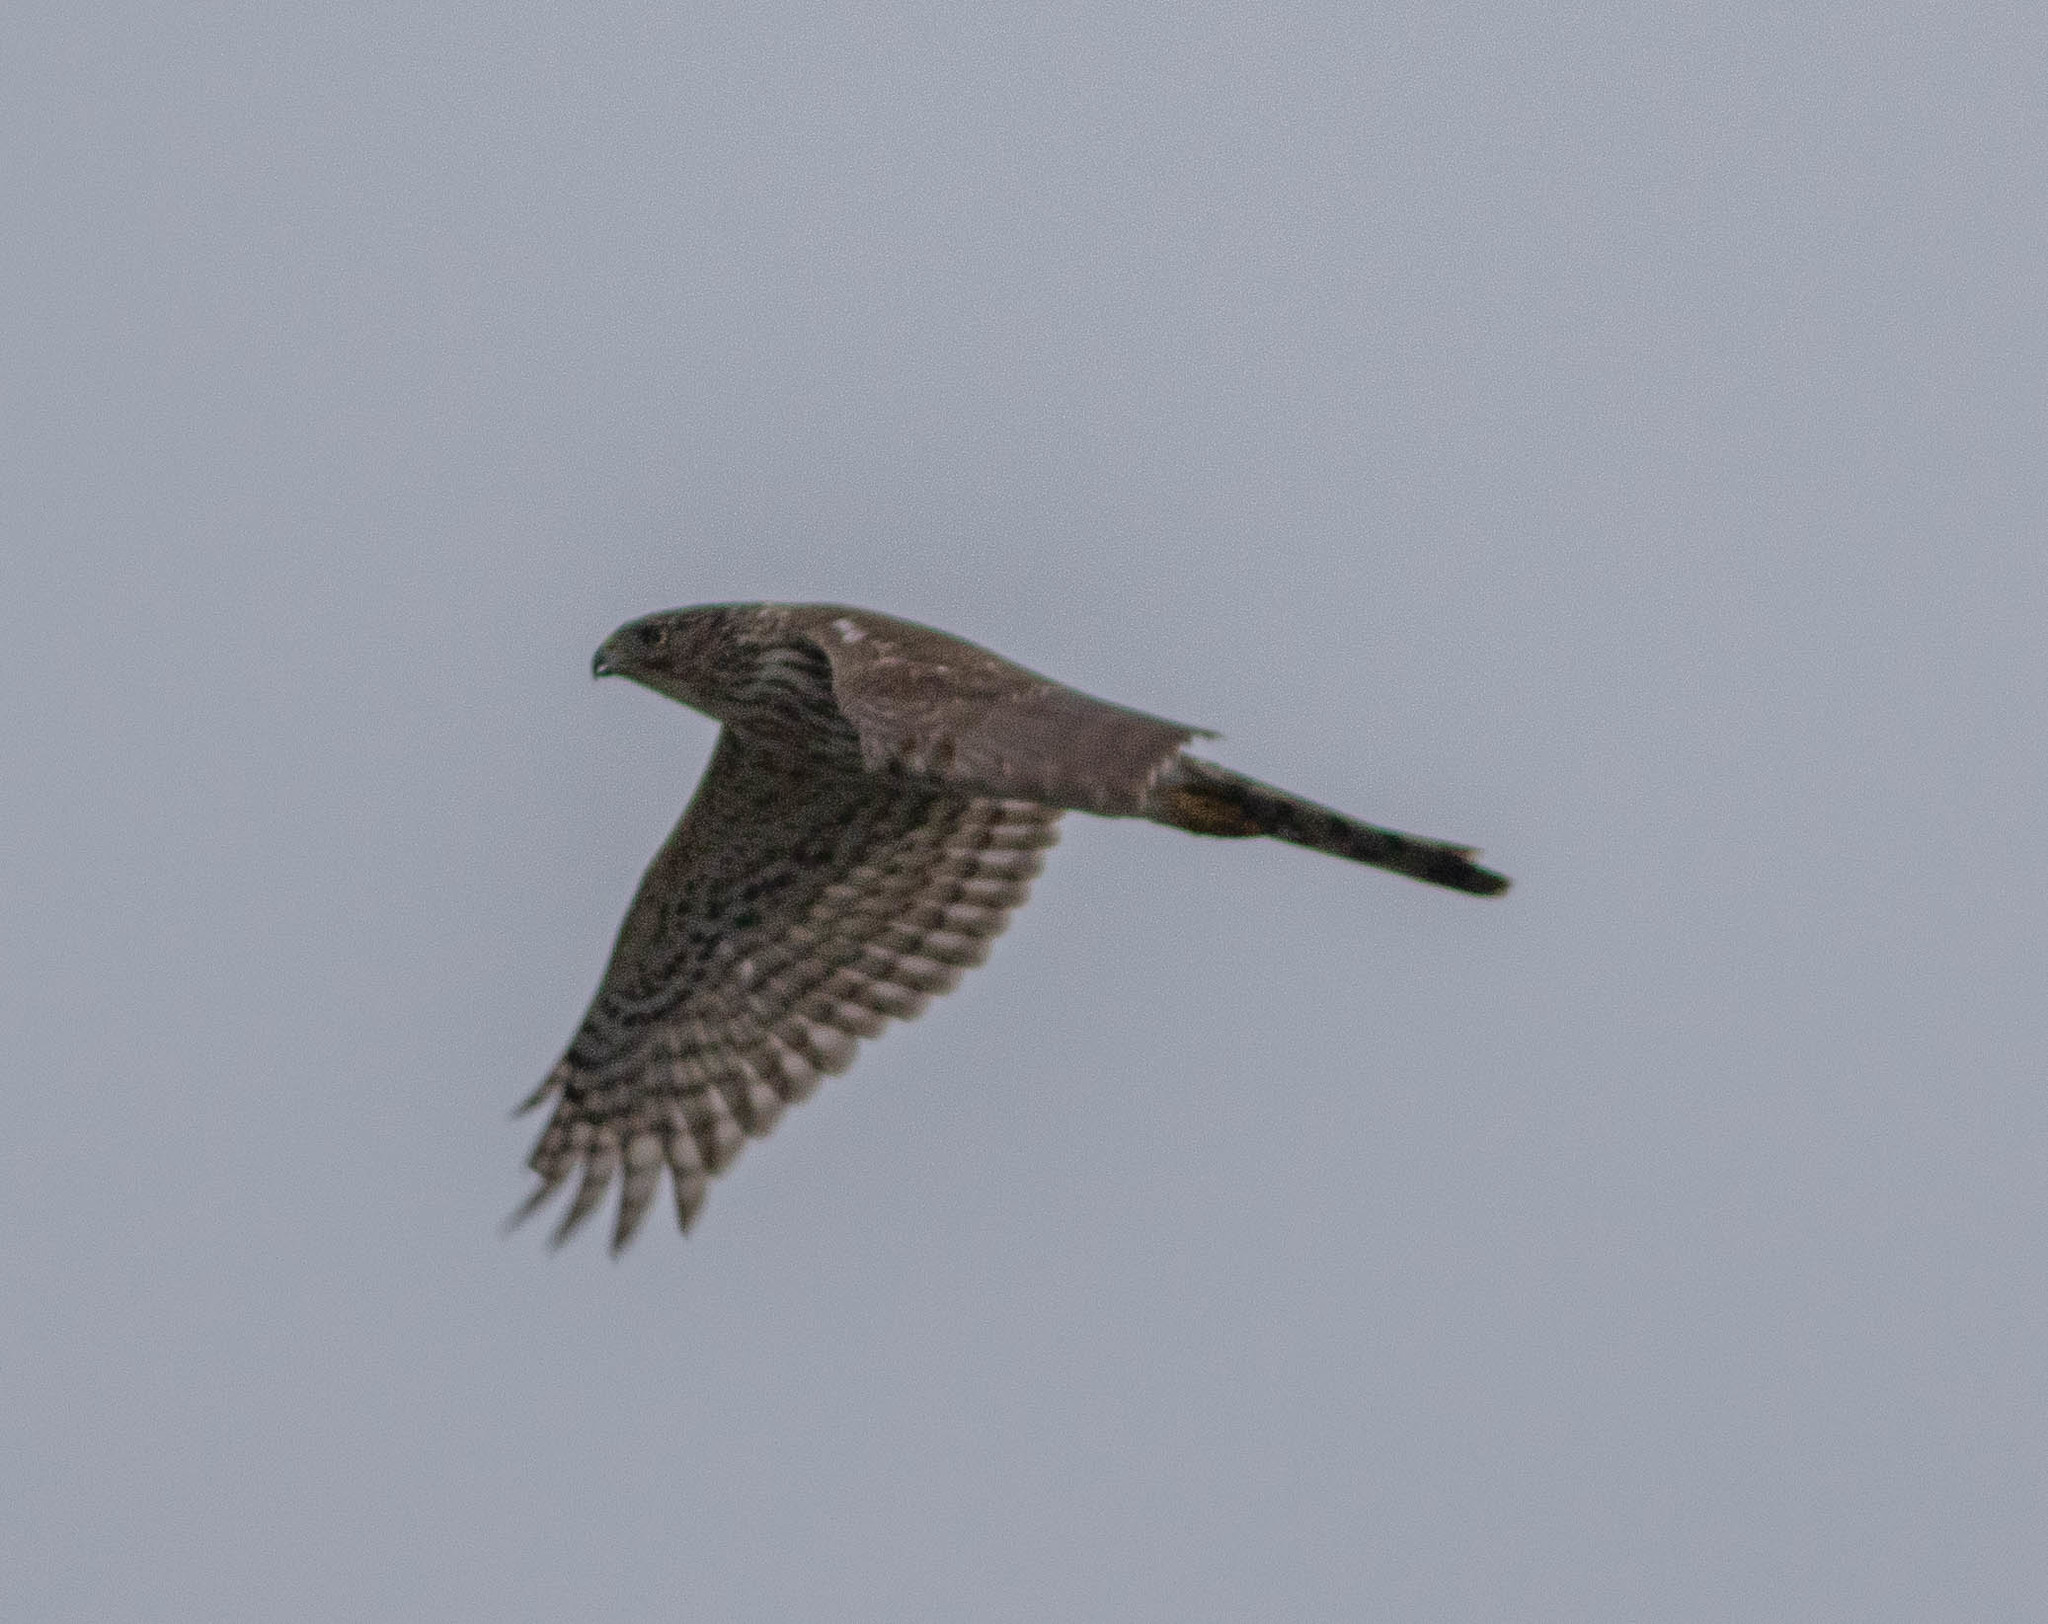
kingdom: Animalia
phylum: Chordata
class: Aves
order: Accipitriformes
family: Accipitridae
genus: Accipiter
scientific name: Accipiter cooperii
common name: Cooper's hawk
